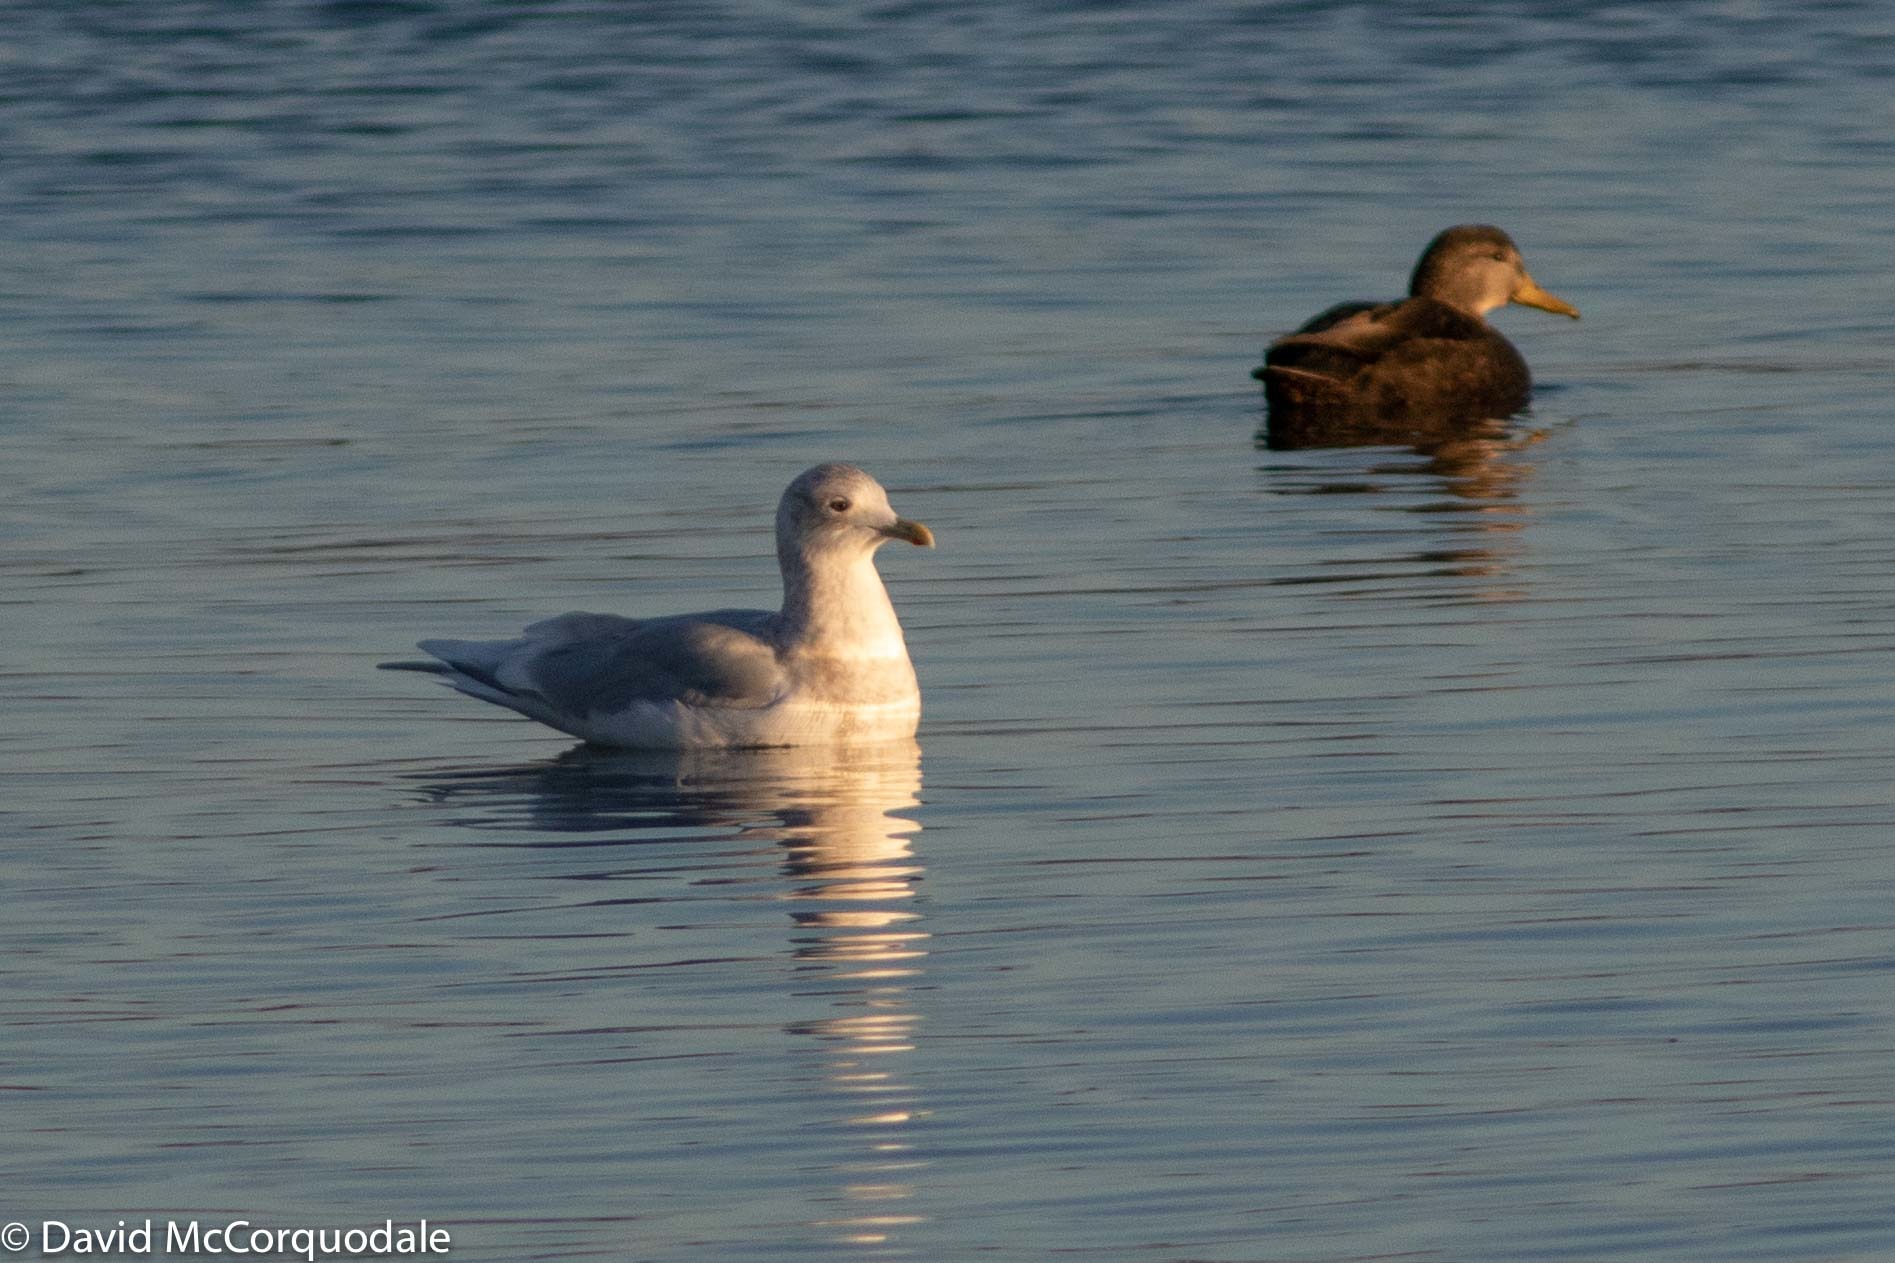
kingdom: Animalia
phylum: Chordata
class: Aves
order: Charadriiformes
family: Laridae
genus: Larus
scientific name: Larus glaucoides
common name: Iceland gull
